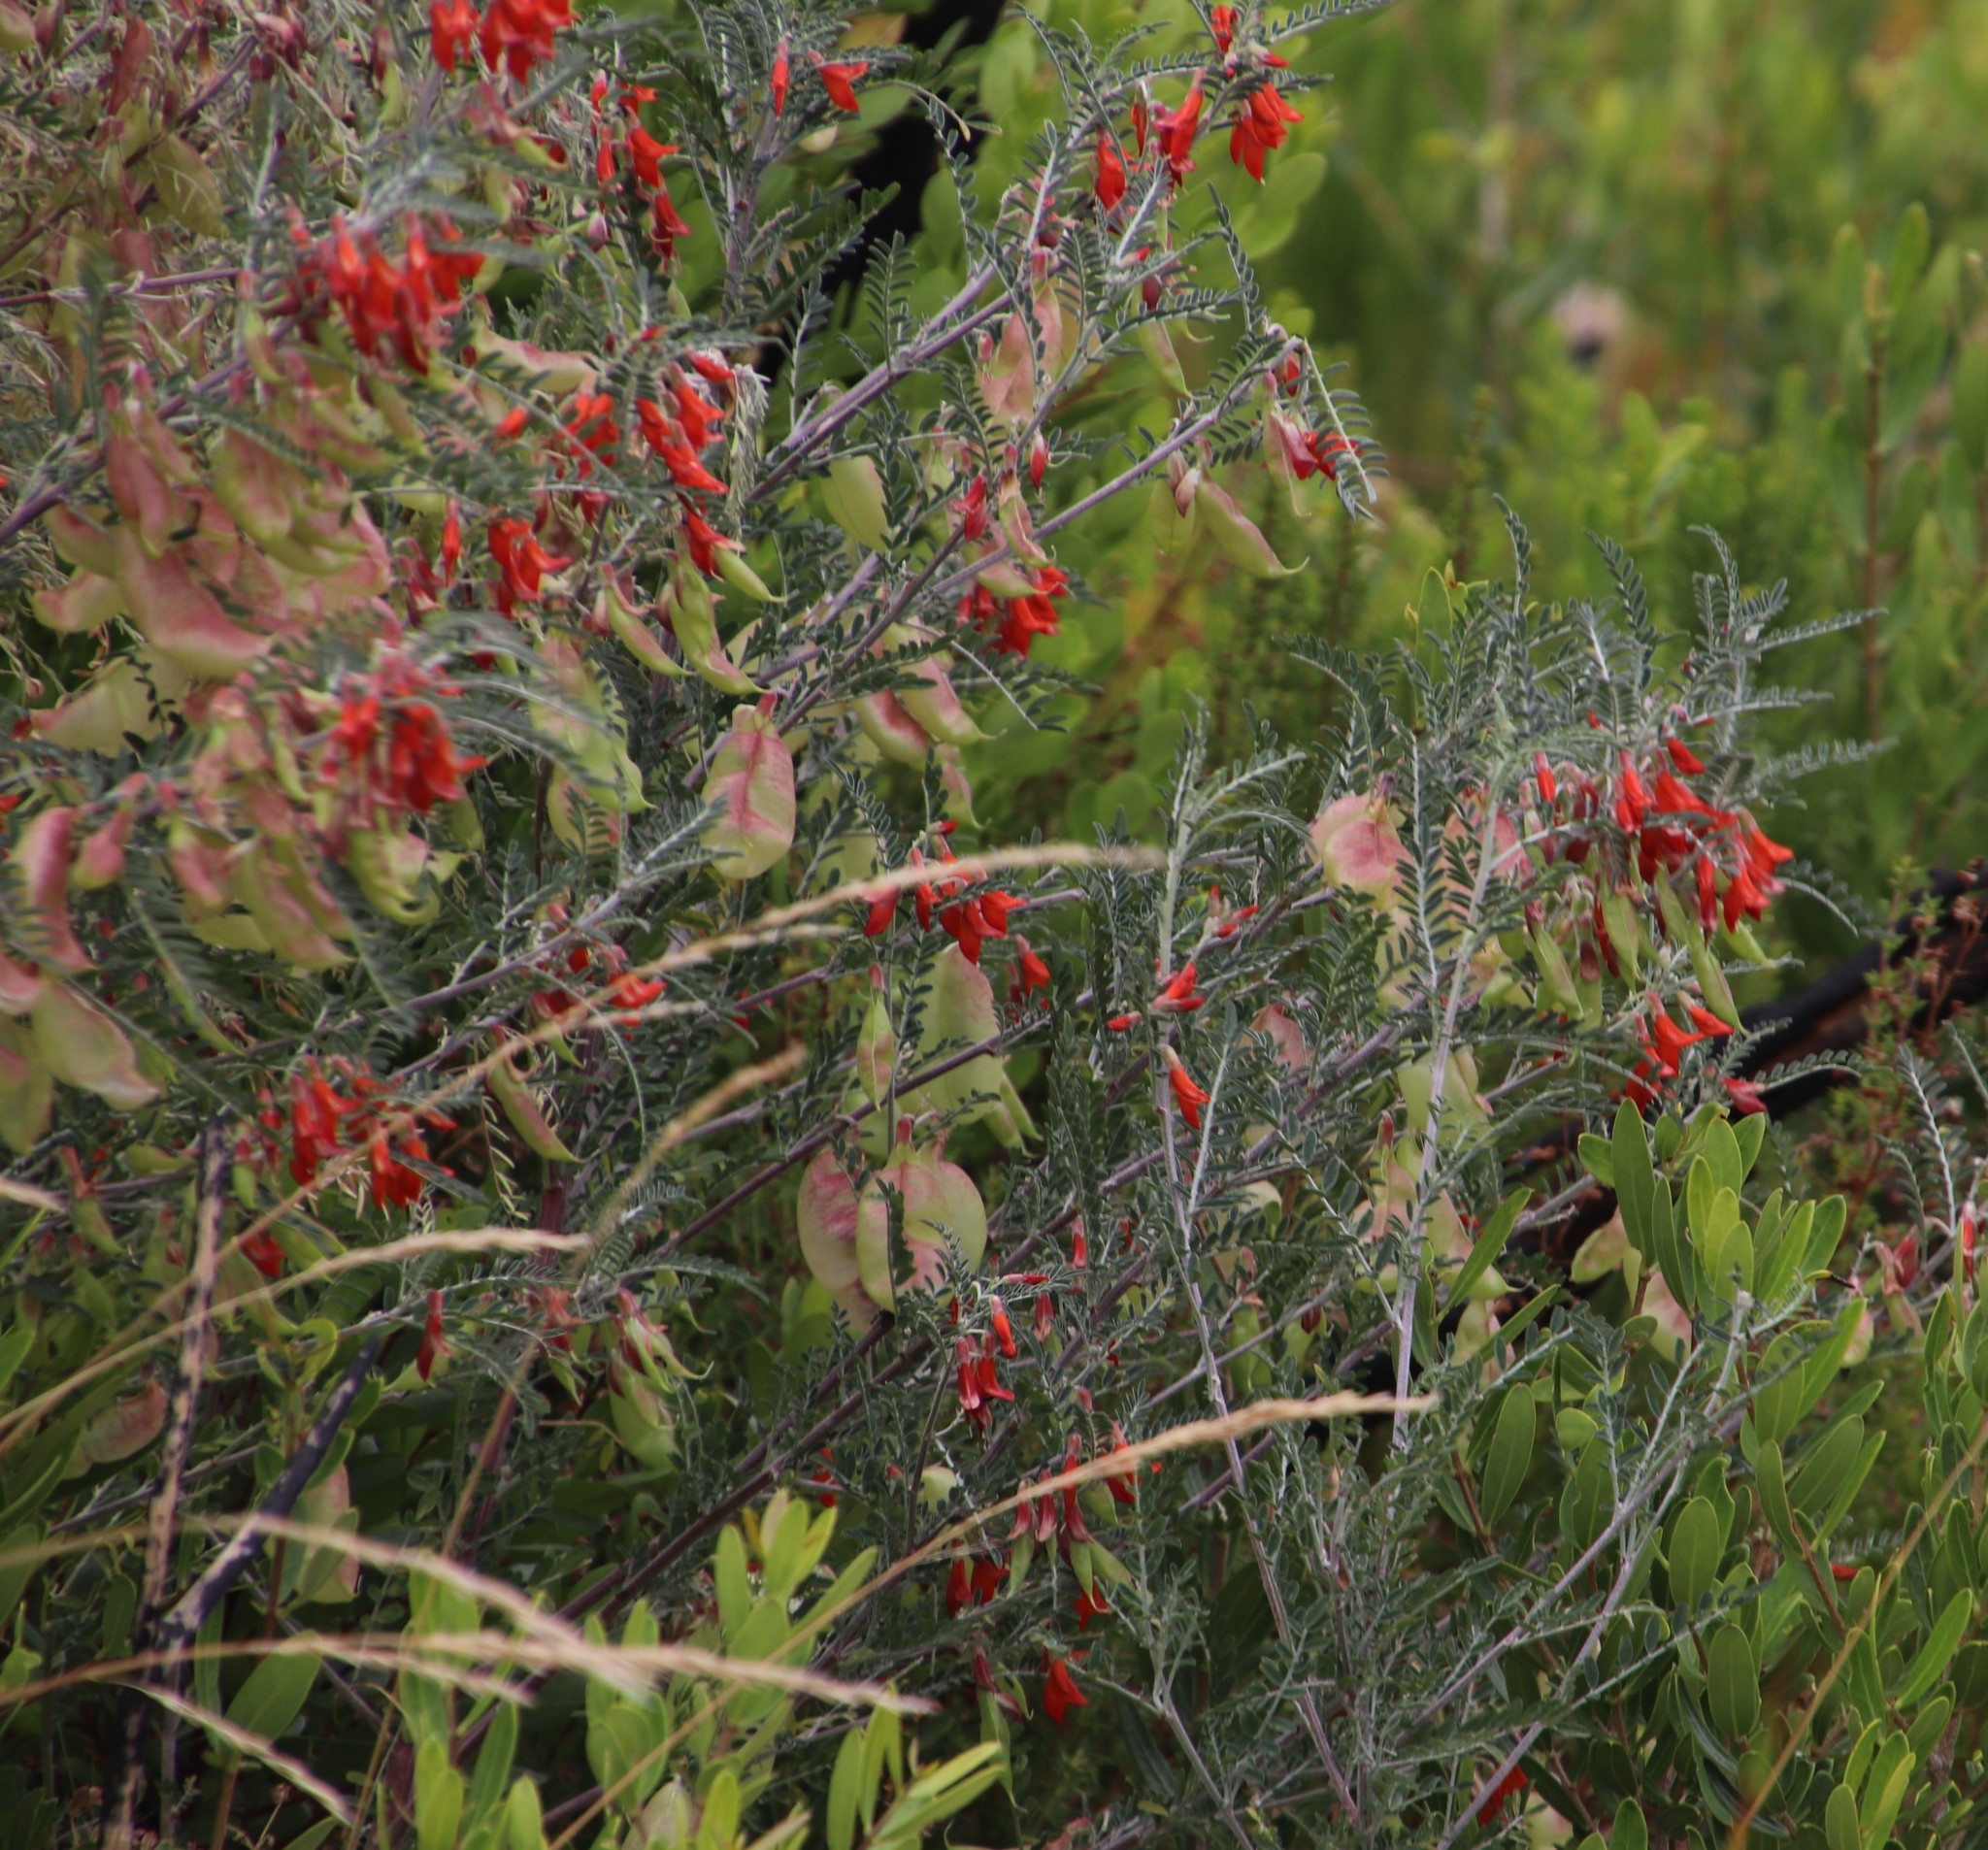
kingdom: Plantae
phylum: Tracheophyta
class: Magnoliopsida
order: Fabales
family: Fabaceae
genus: Lessertia
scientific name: Lessertia frutescens
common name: Balloon-pea
